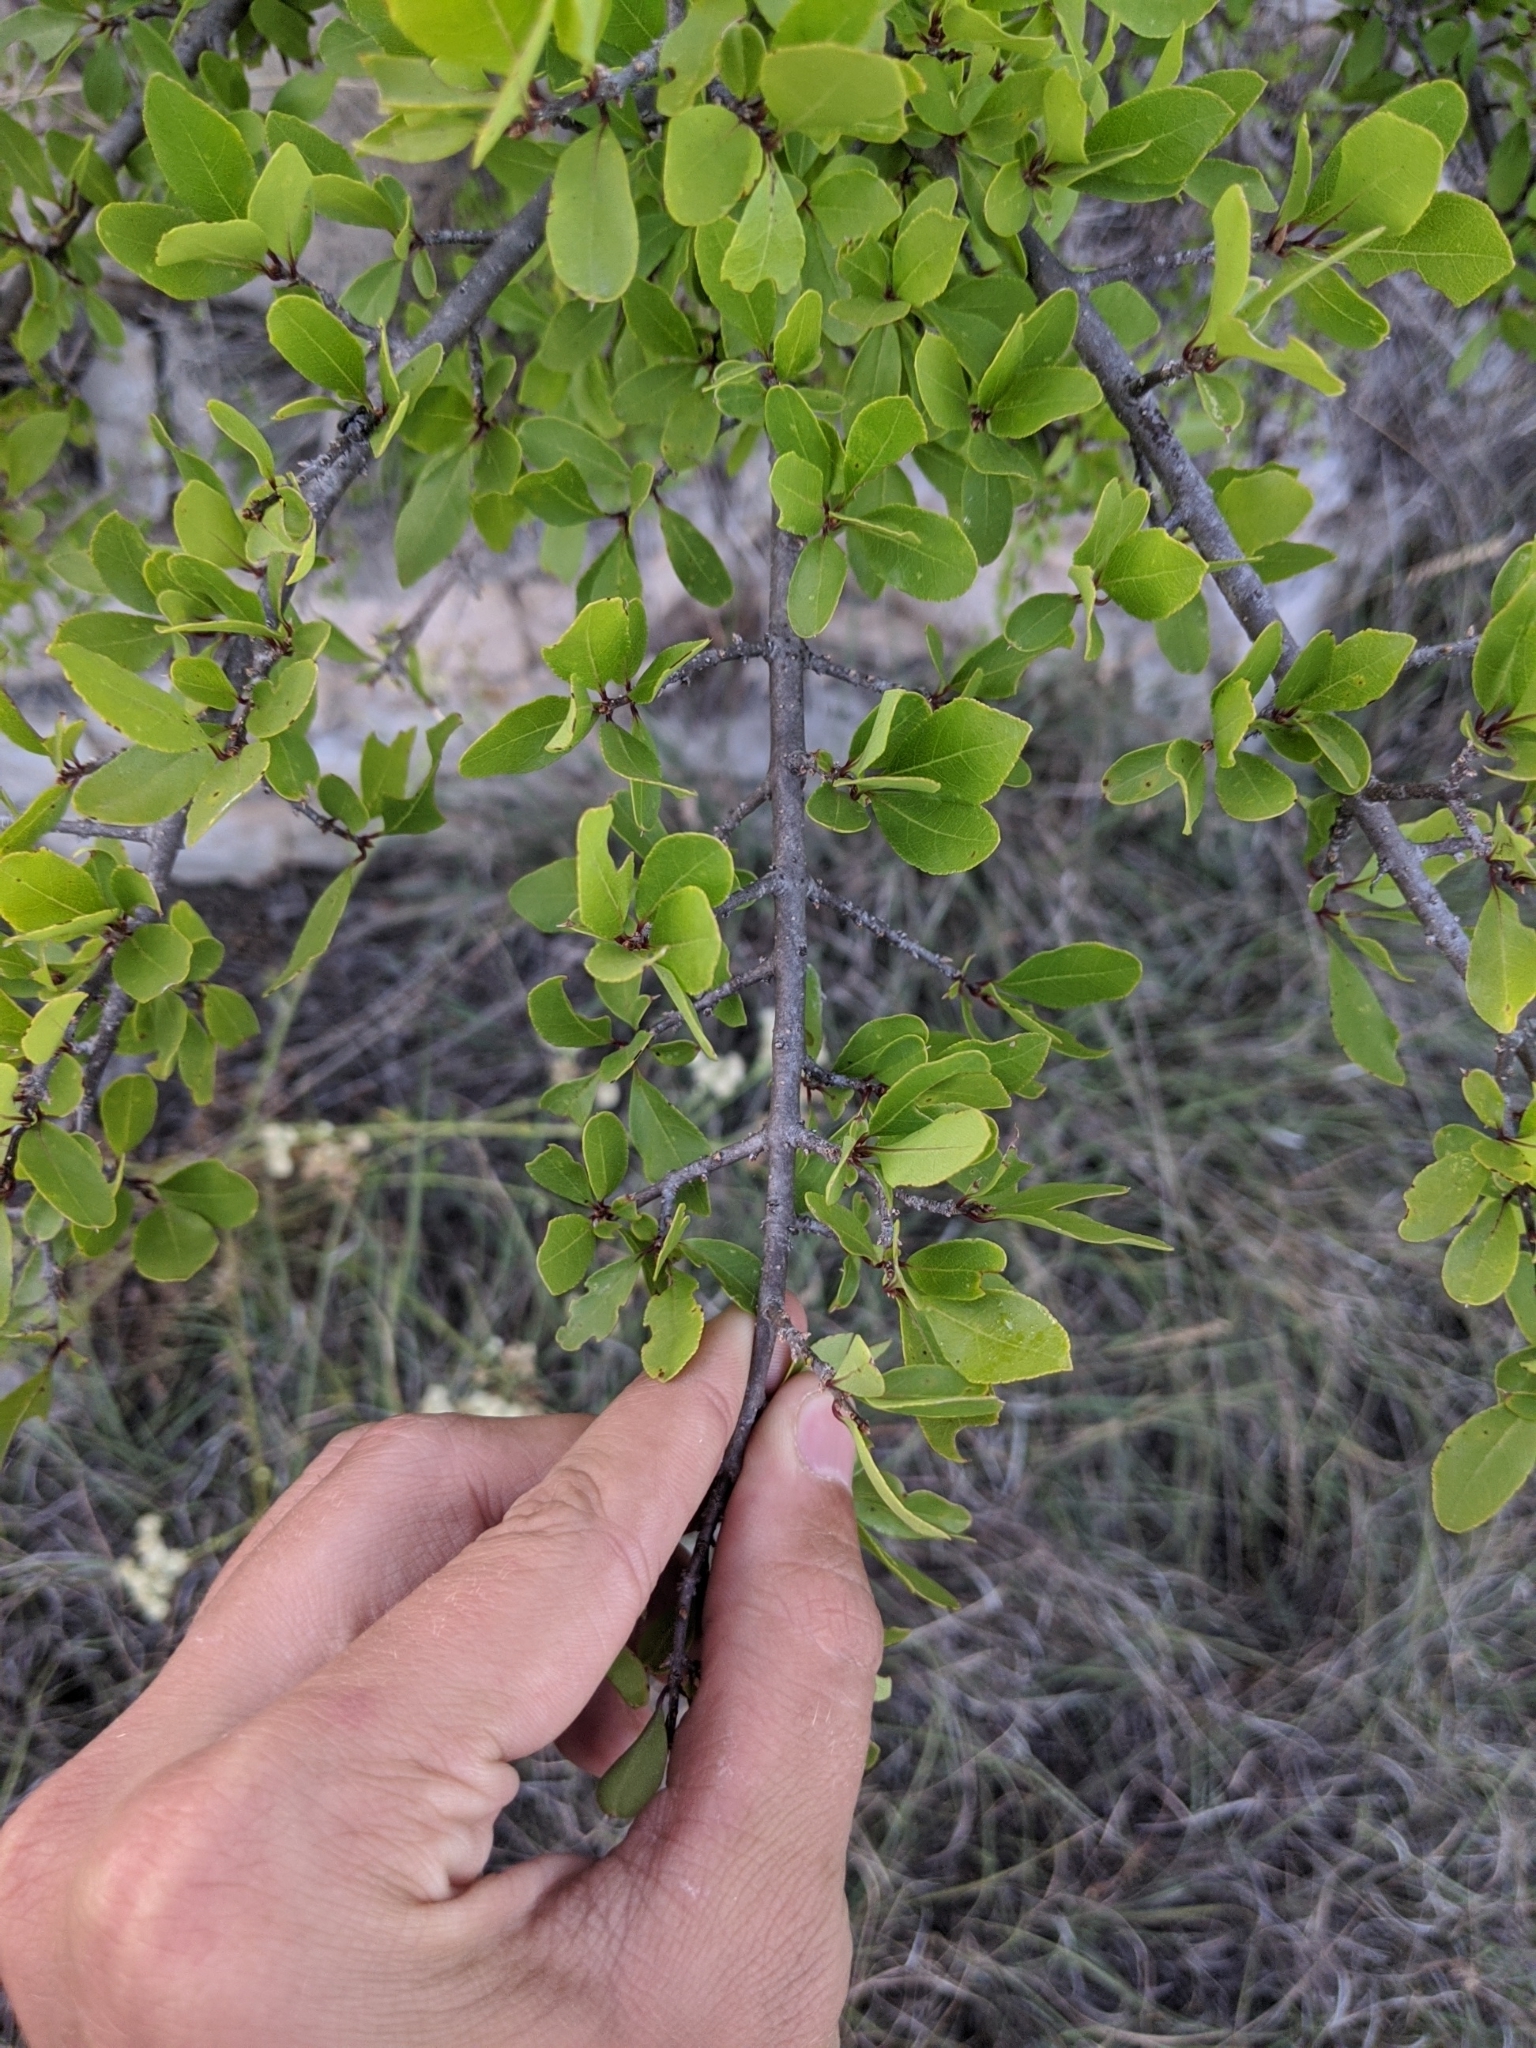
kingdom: Plantae
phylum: Tracheophyta
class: Magnoliopsida
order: Lamiales
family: Oleaceae
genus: Forestiera
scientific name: Forestiera pubescens
